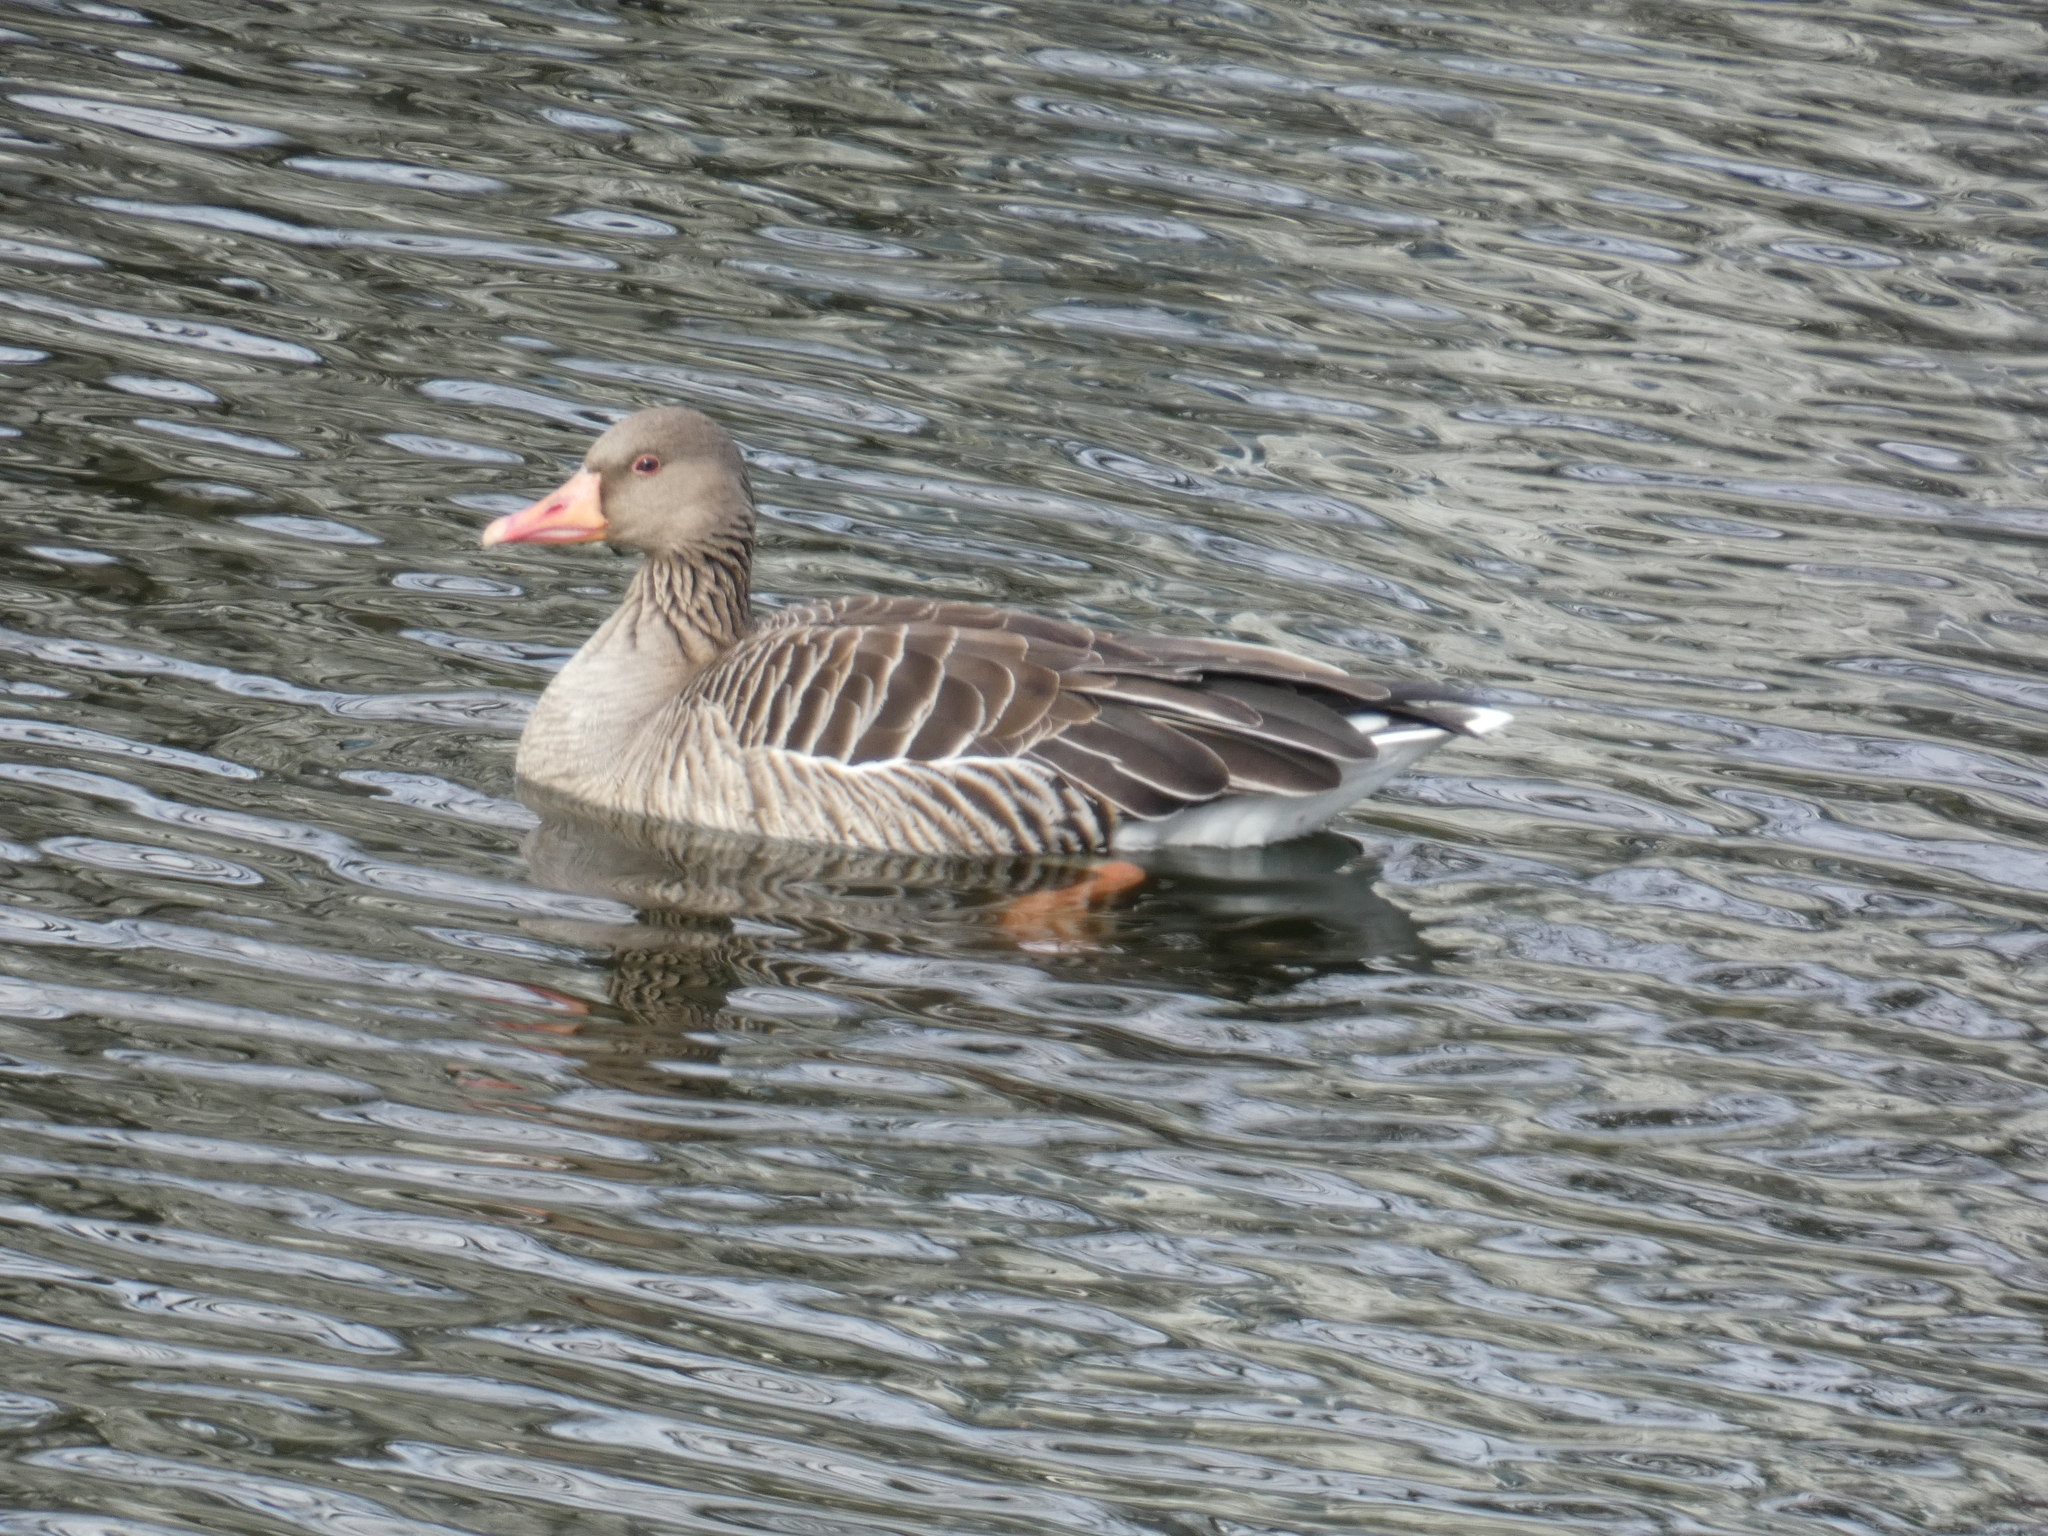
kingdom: Animalia
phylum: Chordata
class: Aves
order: Anseriformes
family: Anatidae
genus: Anser
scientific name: Anser anser
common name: Greylag goose
